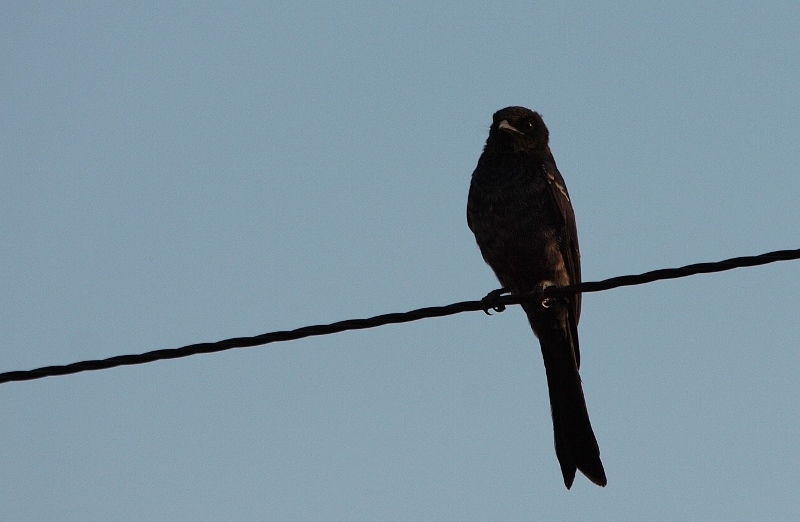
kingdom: Animalia
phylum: Chordata
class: Aves
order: Passeriformes
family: Dicruridae
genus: Dicrurus
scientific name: Dicrurus adsimilis
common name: Fork-tailed drongo
